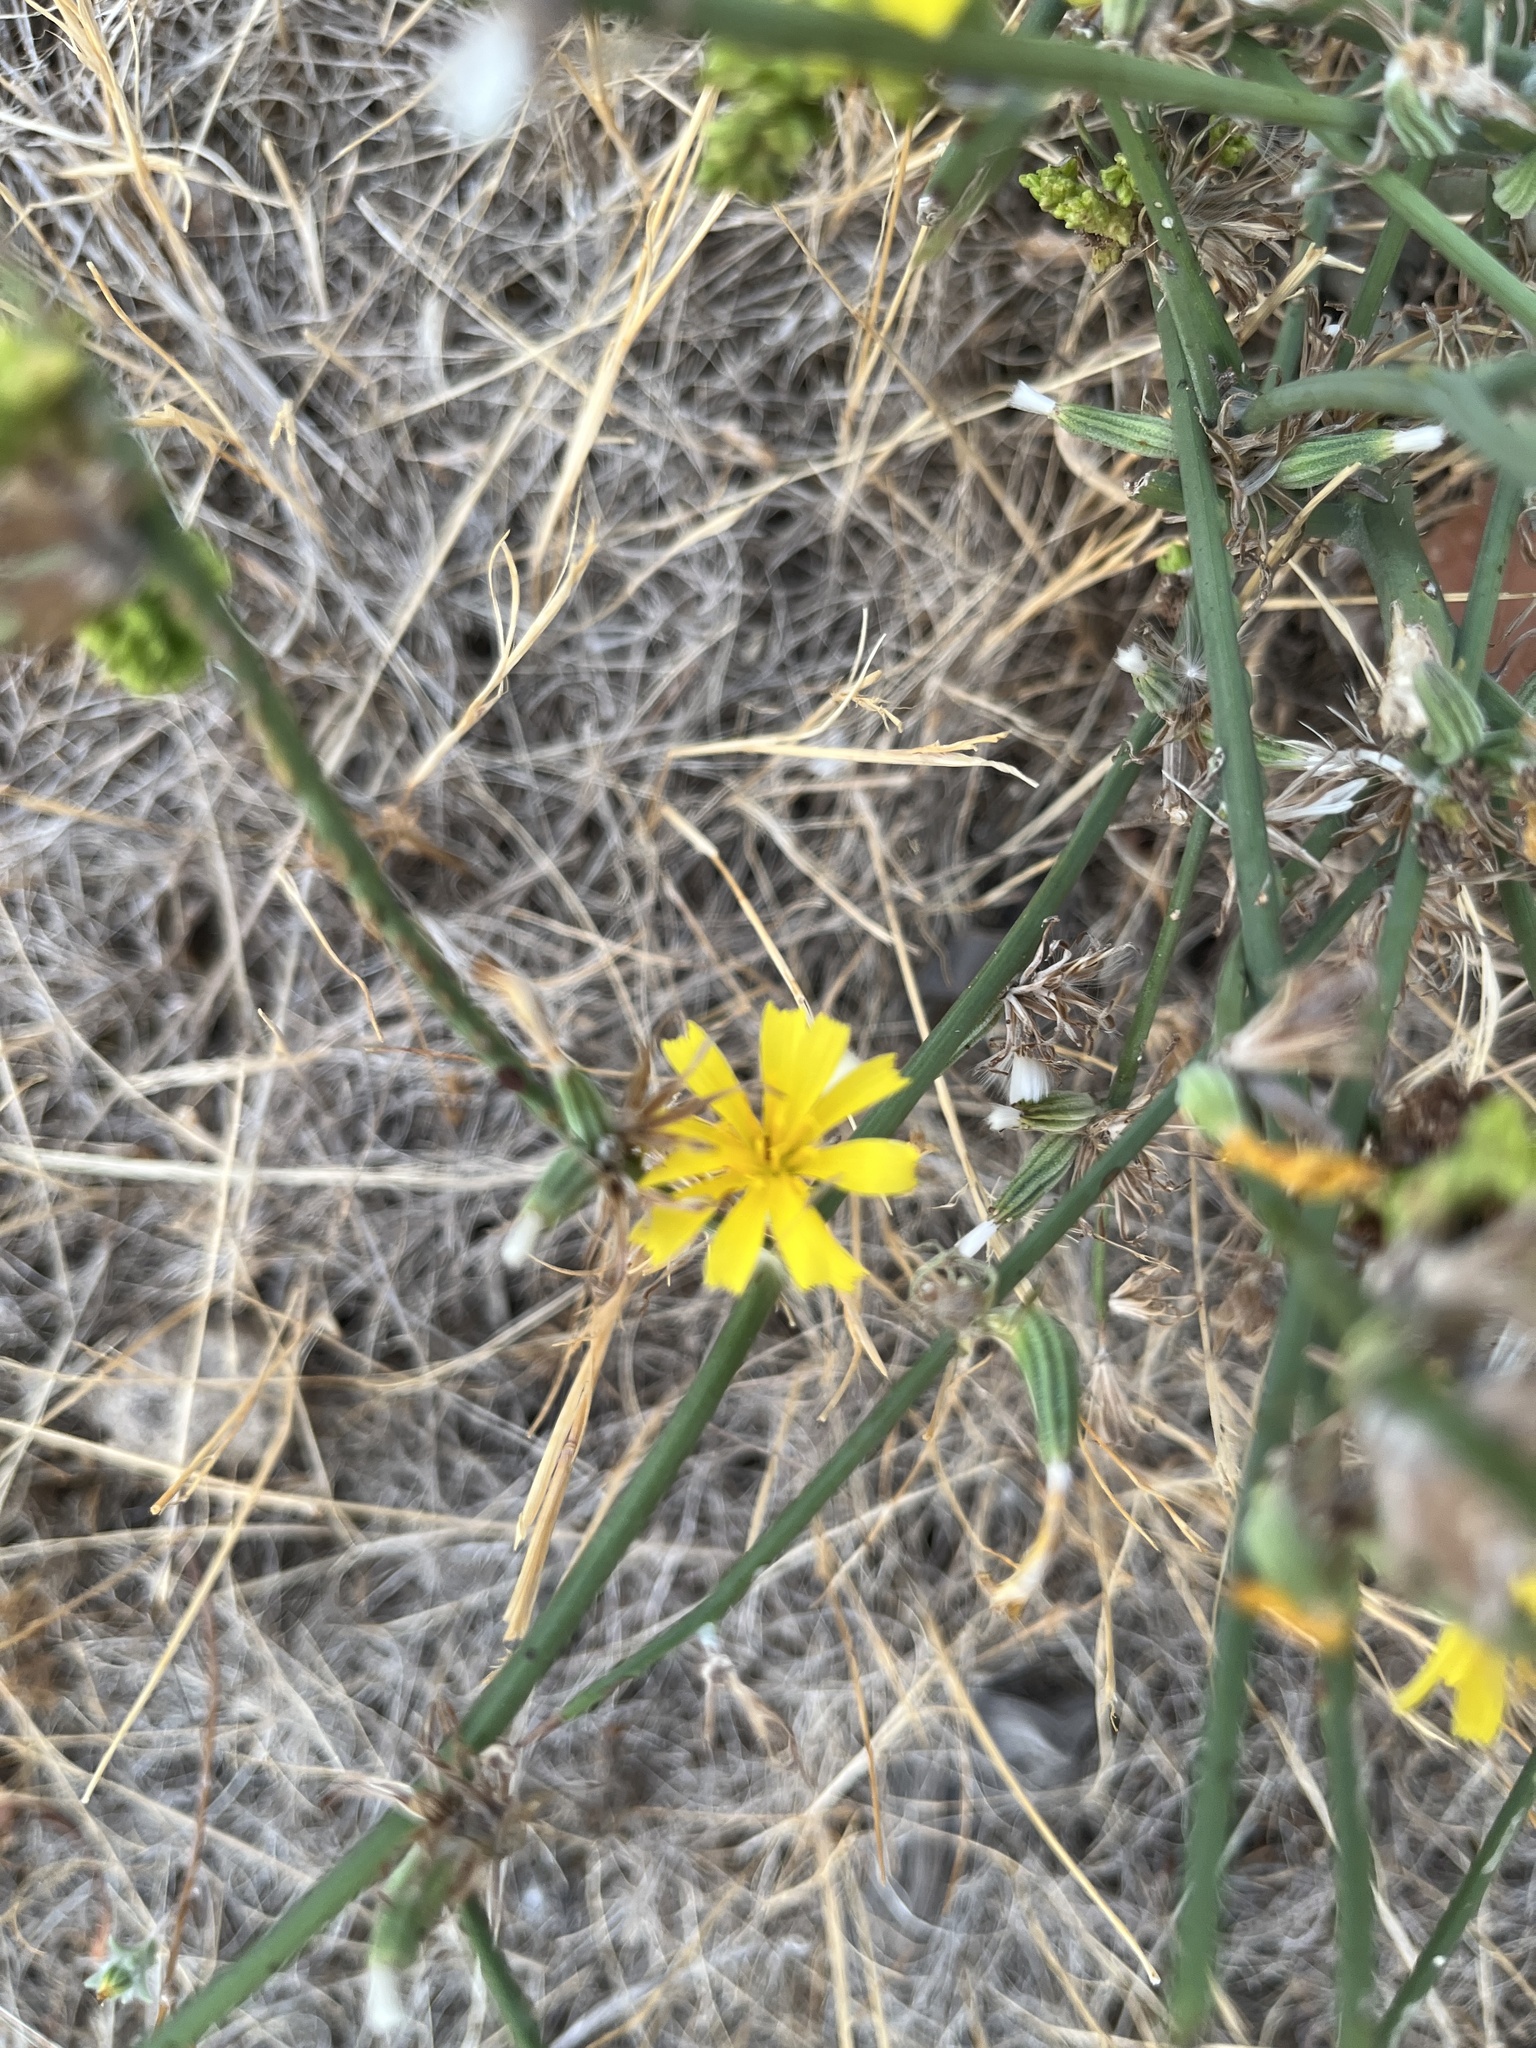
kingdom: Plantae
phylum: Tracheophyta
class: Magnoliopsida
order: Asterales
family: Asteraceae
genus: Chondrilla
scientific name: Chondrilla juncea
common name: Skeleton weed
